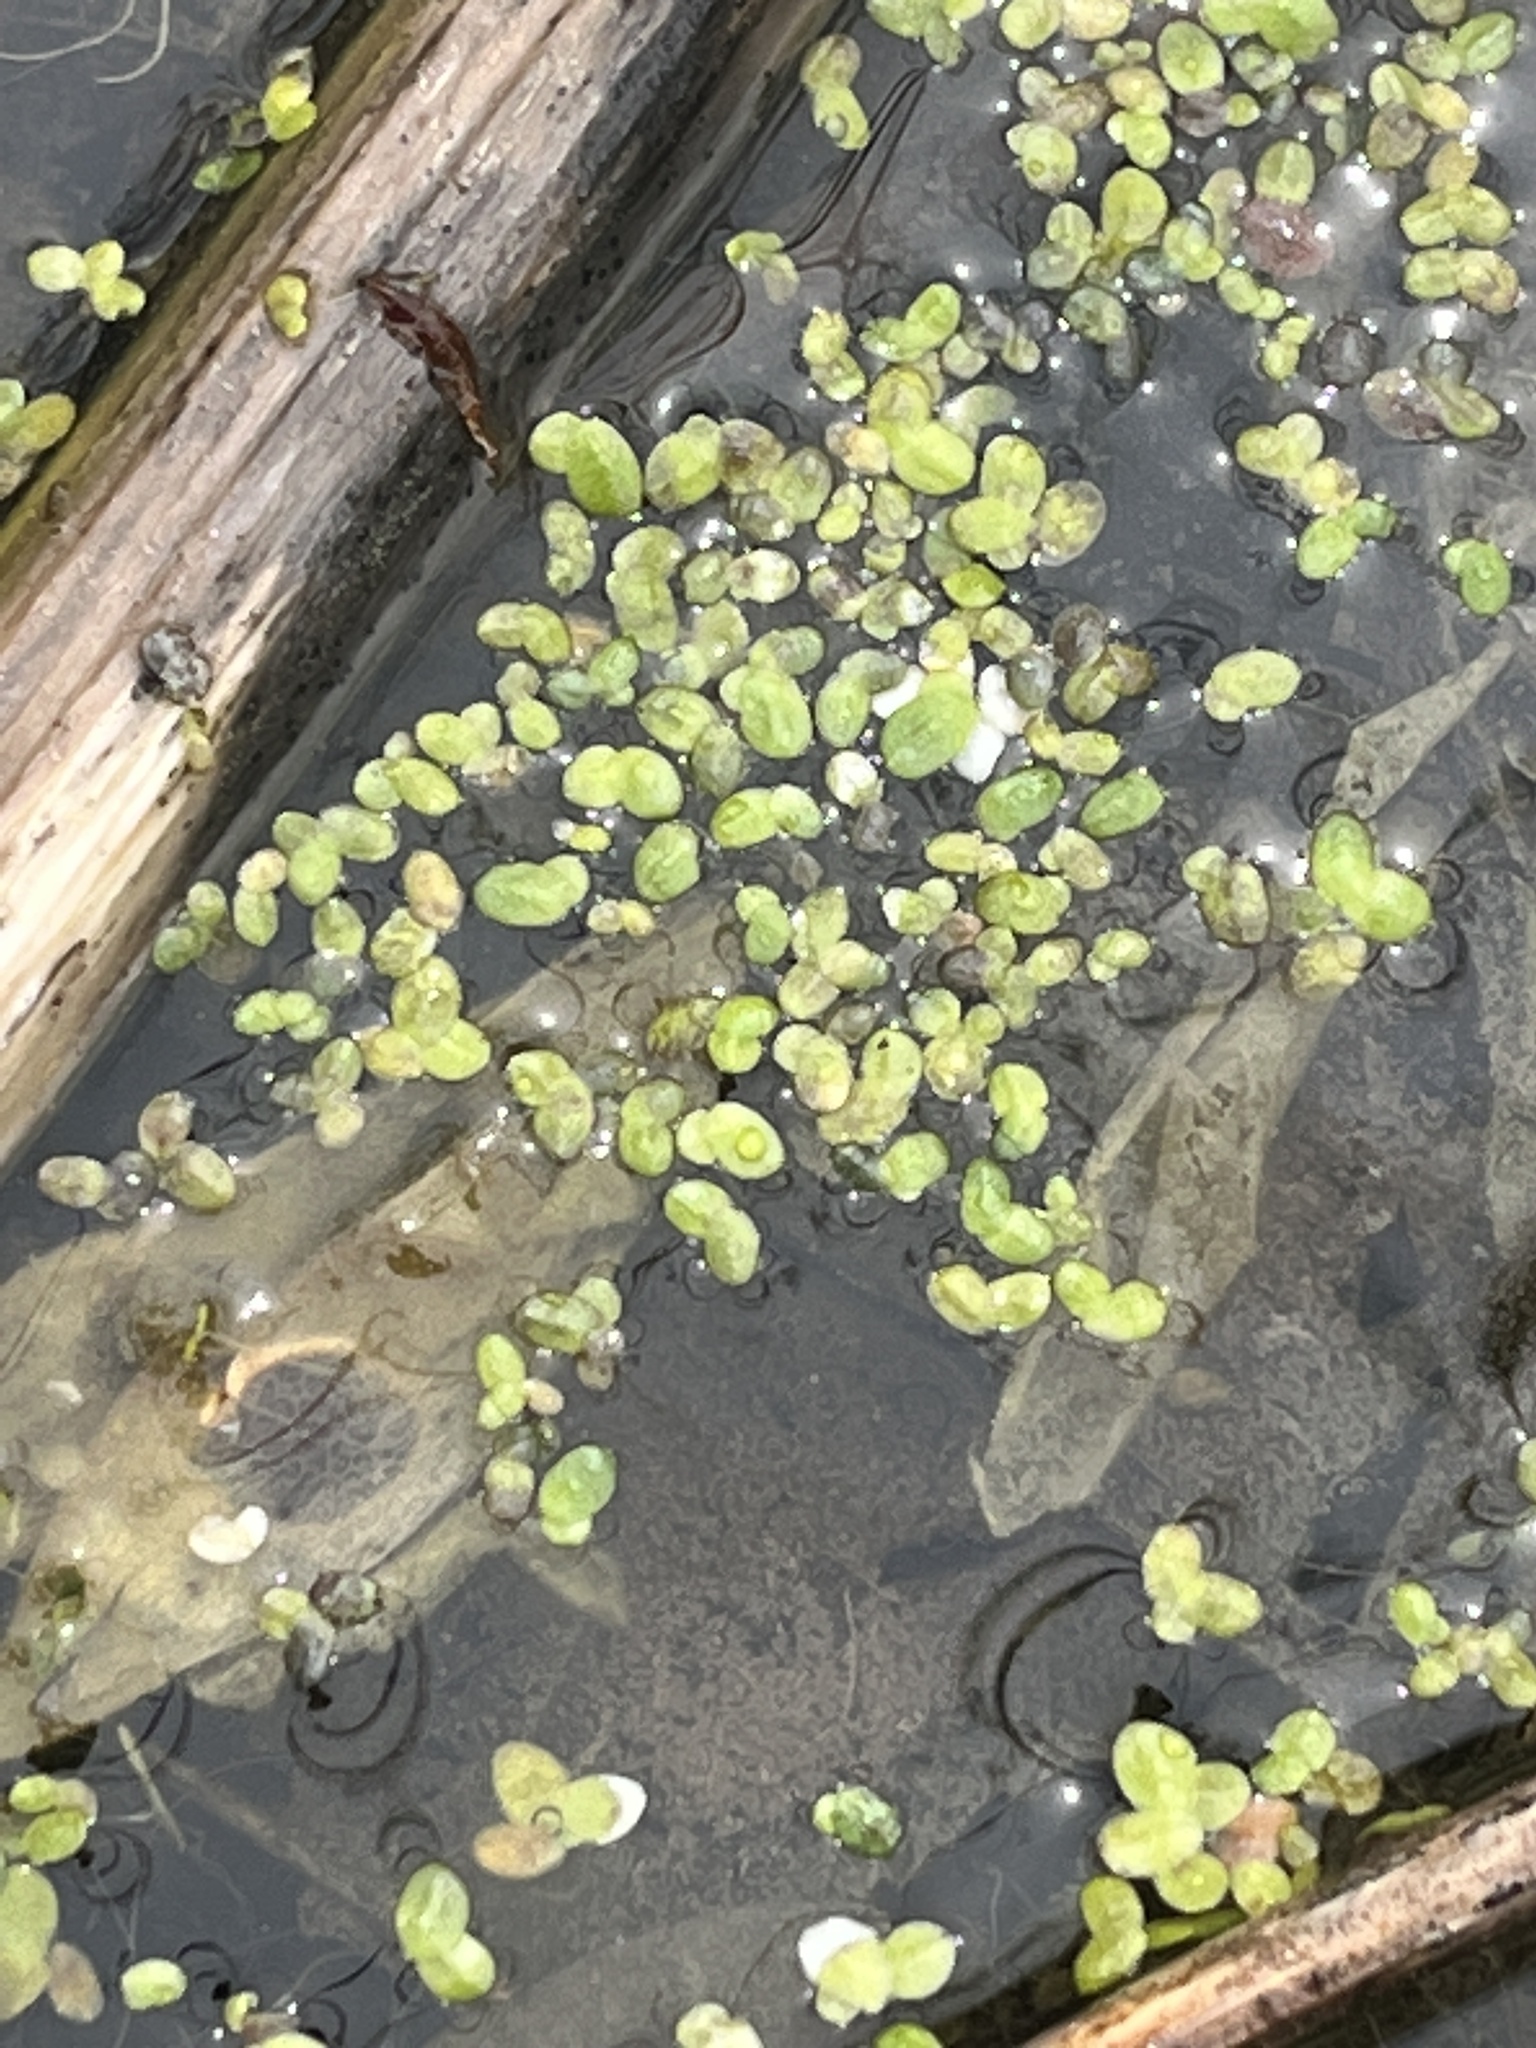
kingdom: Plantae
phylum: Tracheophyta
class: Liliopsida
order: Alismatales
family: Araceae
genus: Lemna
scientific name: Lemna minor
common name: Common duckweed
